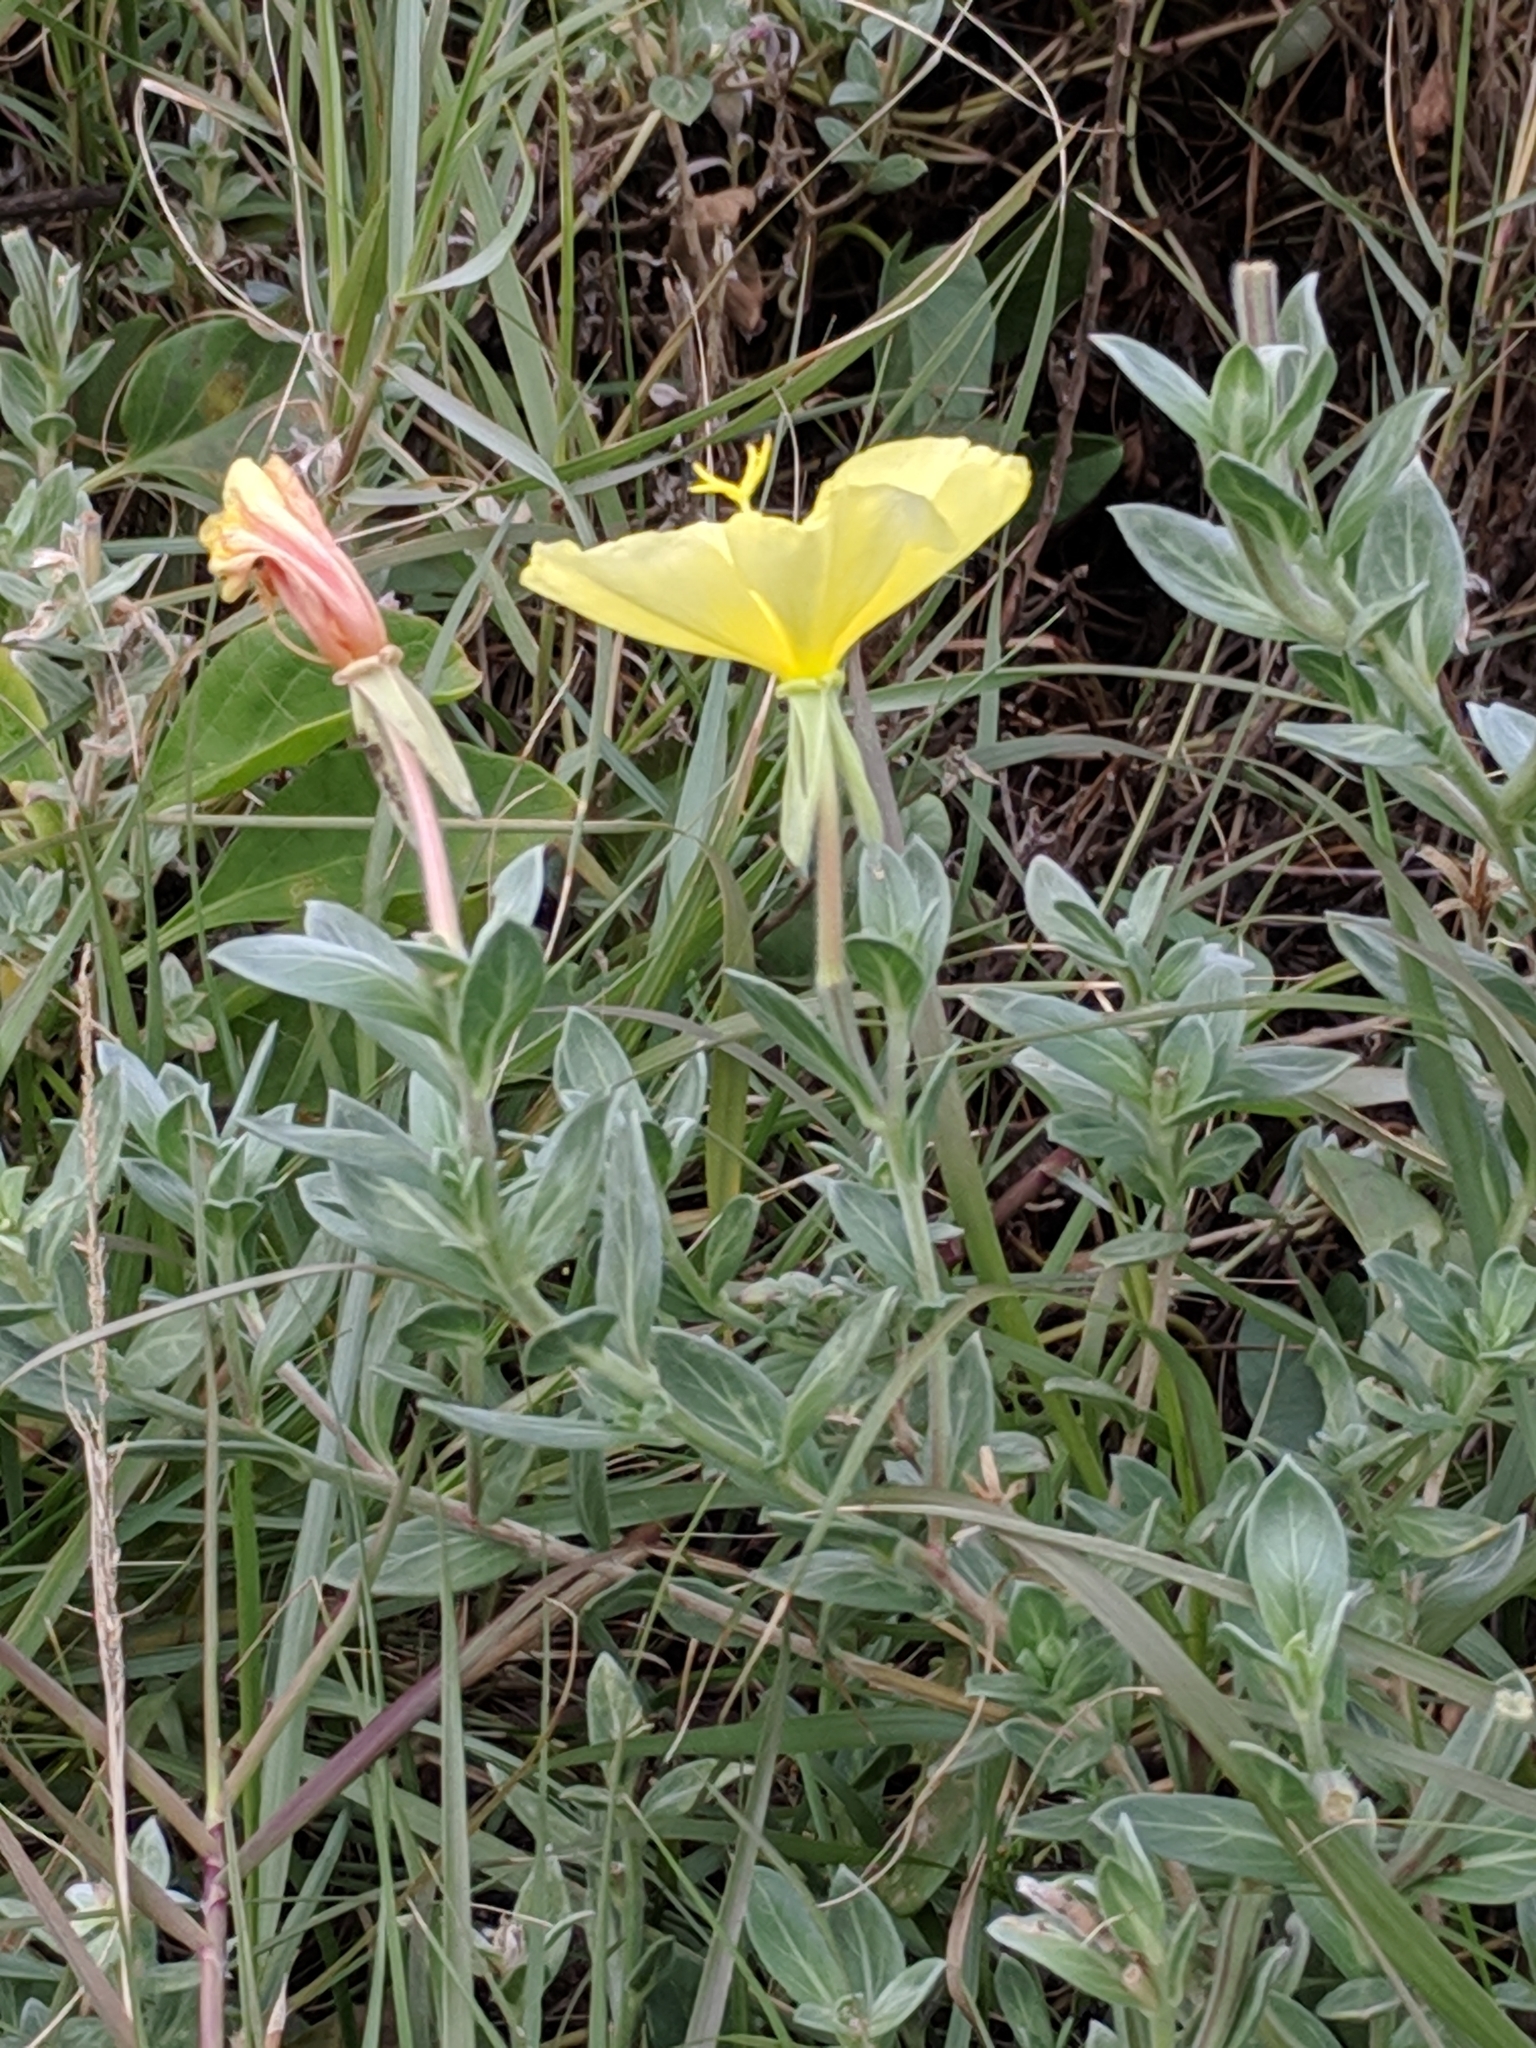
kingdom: Plantae
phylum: Tracheophyta
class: Magnoliopsida
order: Myrtales
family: Onagraceae
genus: Oenothera
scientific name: Oenothera drummondii
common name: Beach evening-primrose
